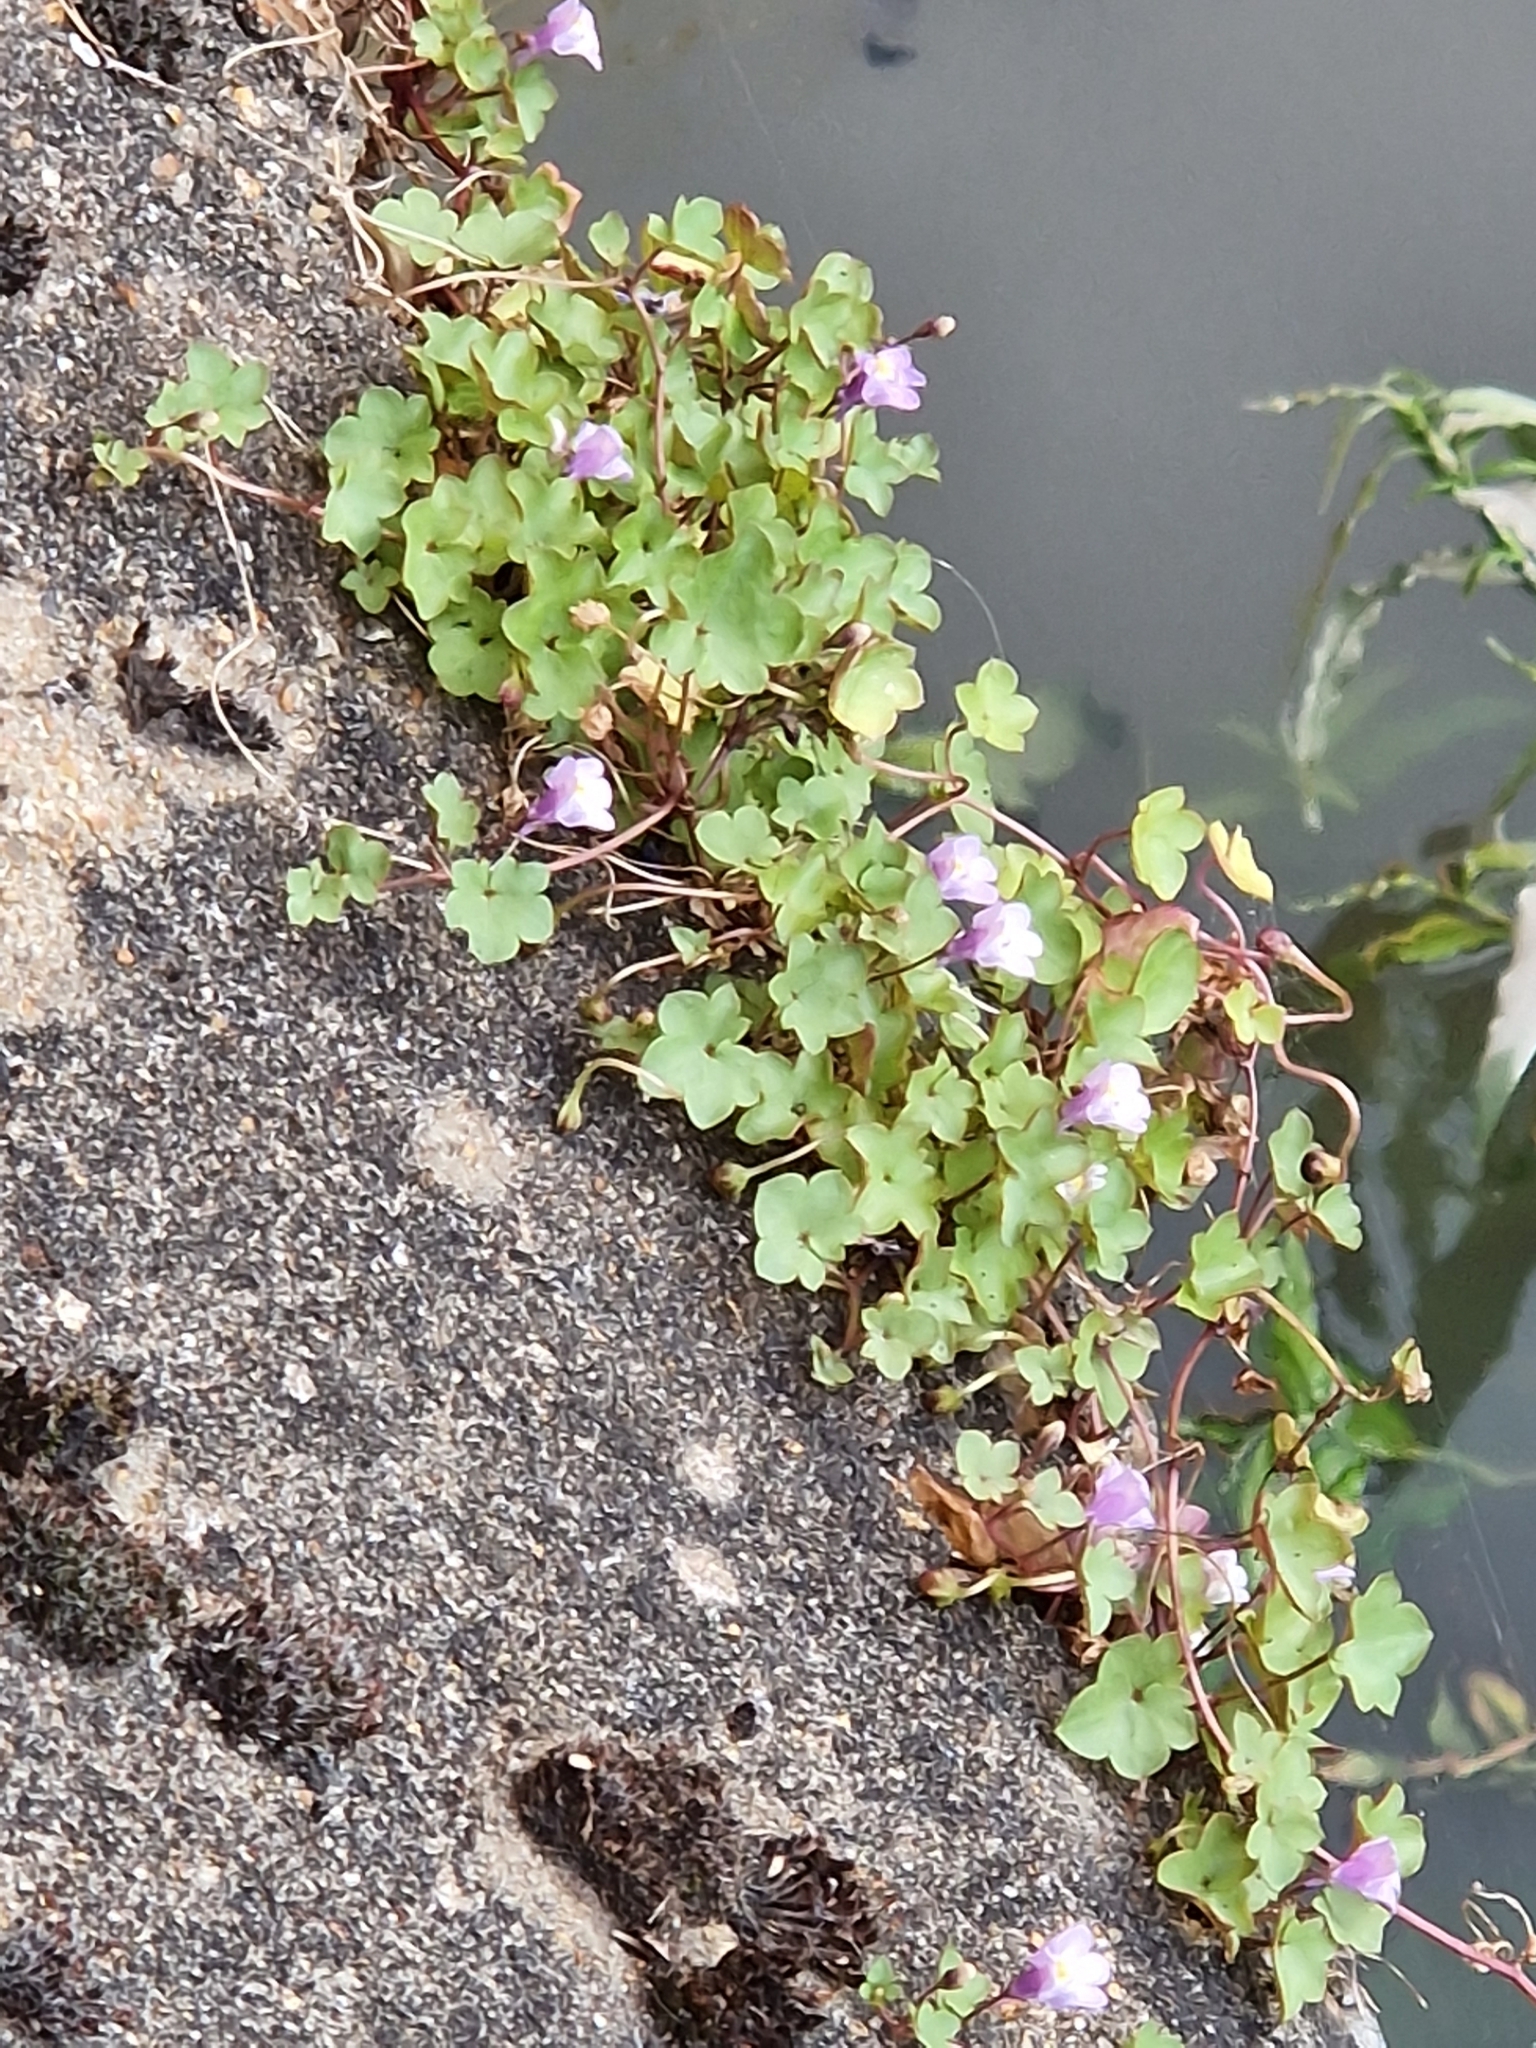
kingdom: Plantae
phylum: Tracheophyta
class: Magnoliopsida
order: Lamiales
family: Plantaginaceae
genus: Cymbalaria
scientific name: Cymbalaria muralis
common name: Ivy-leaved toadflax
